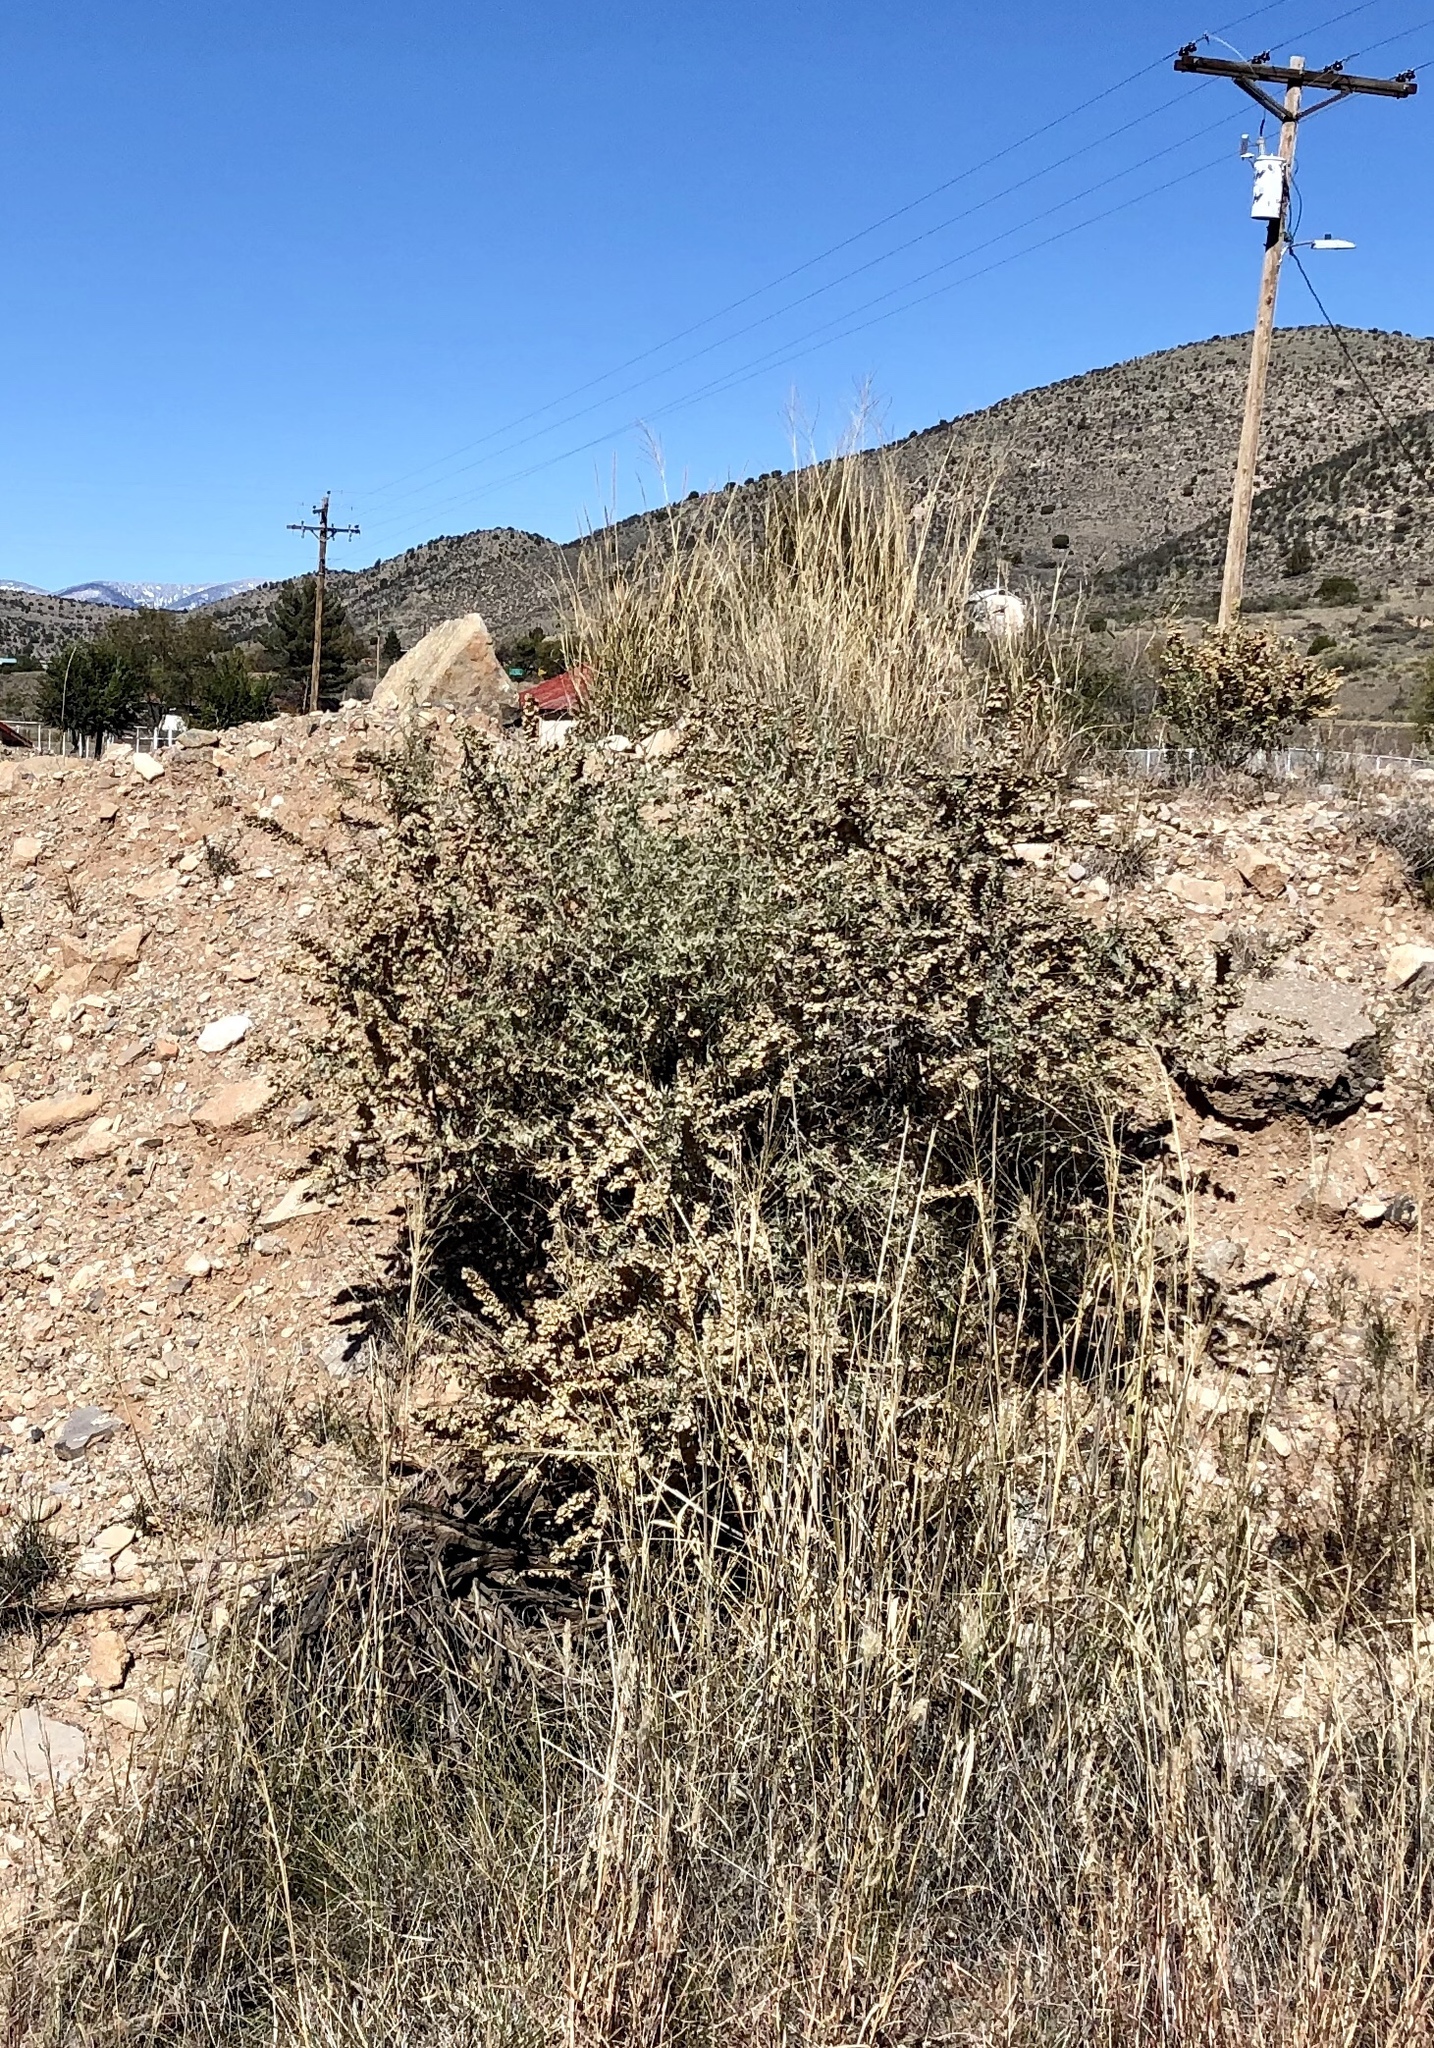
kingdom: Plantae
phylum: Tracheophyta
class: Magnoliopsida
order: Caryophyllales
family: Amaranthaceae
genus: Atriplex
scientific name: Atriplex canescens
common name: Four-wing saltbush
